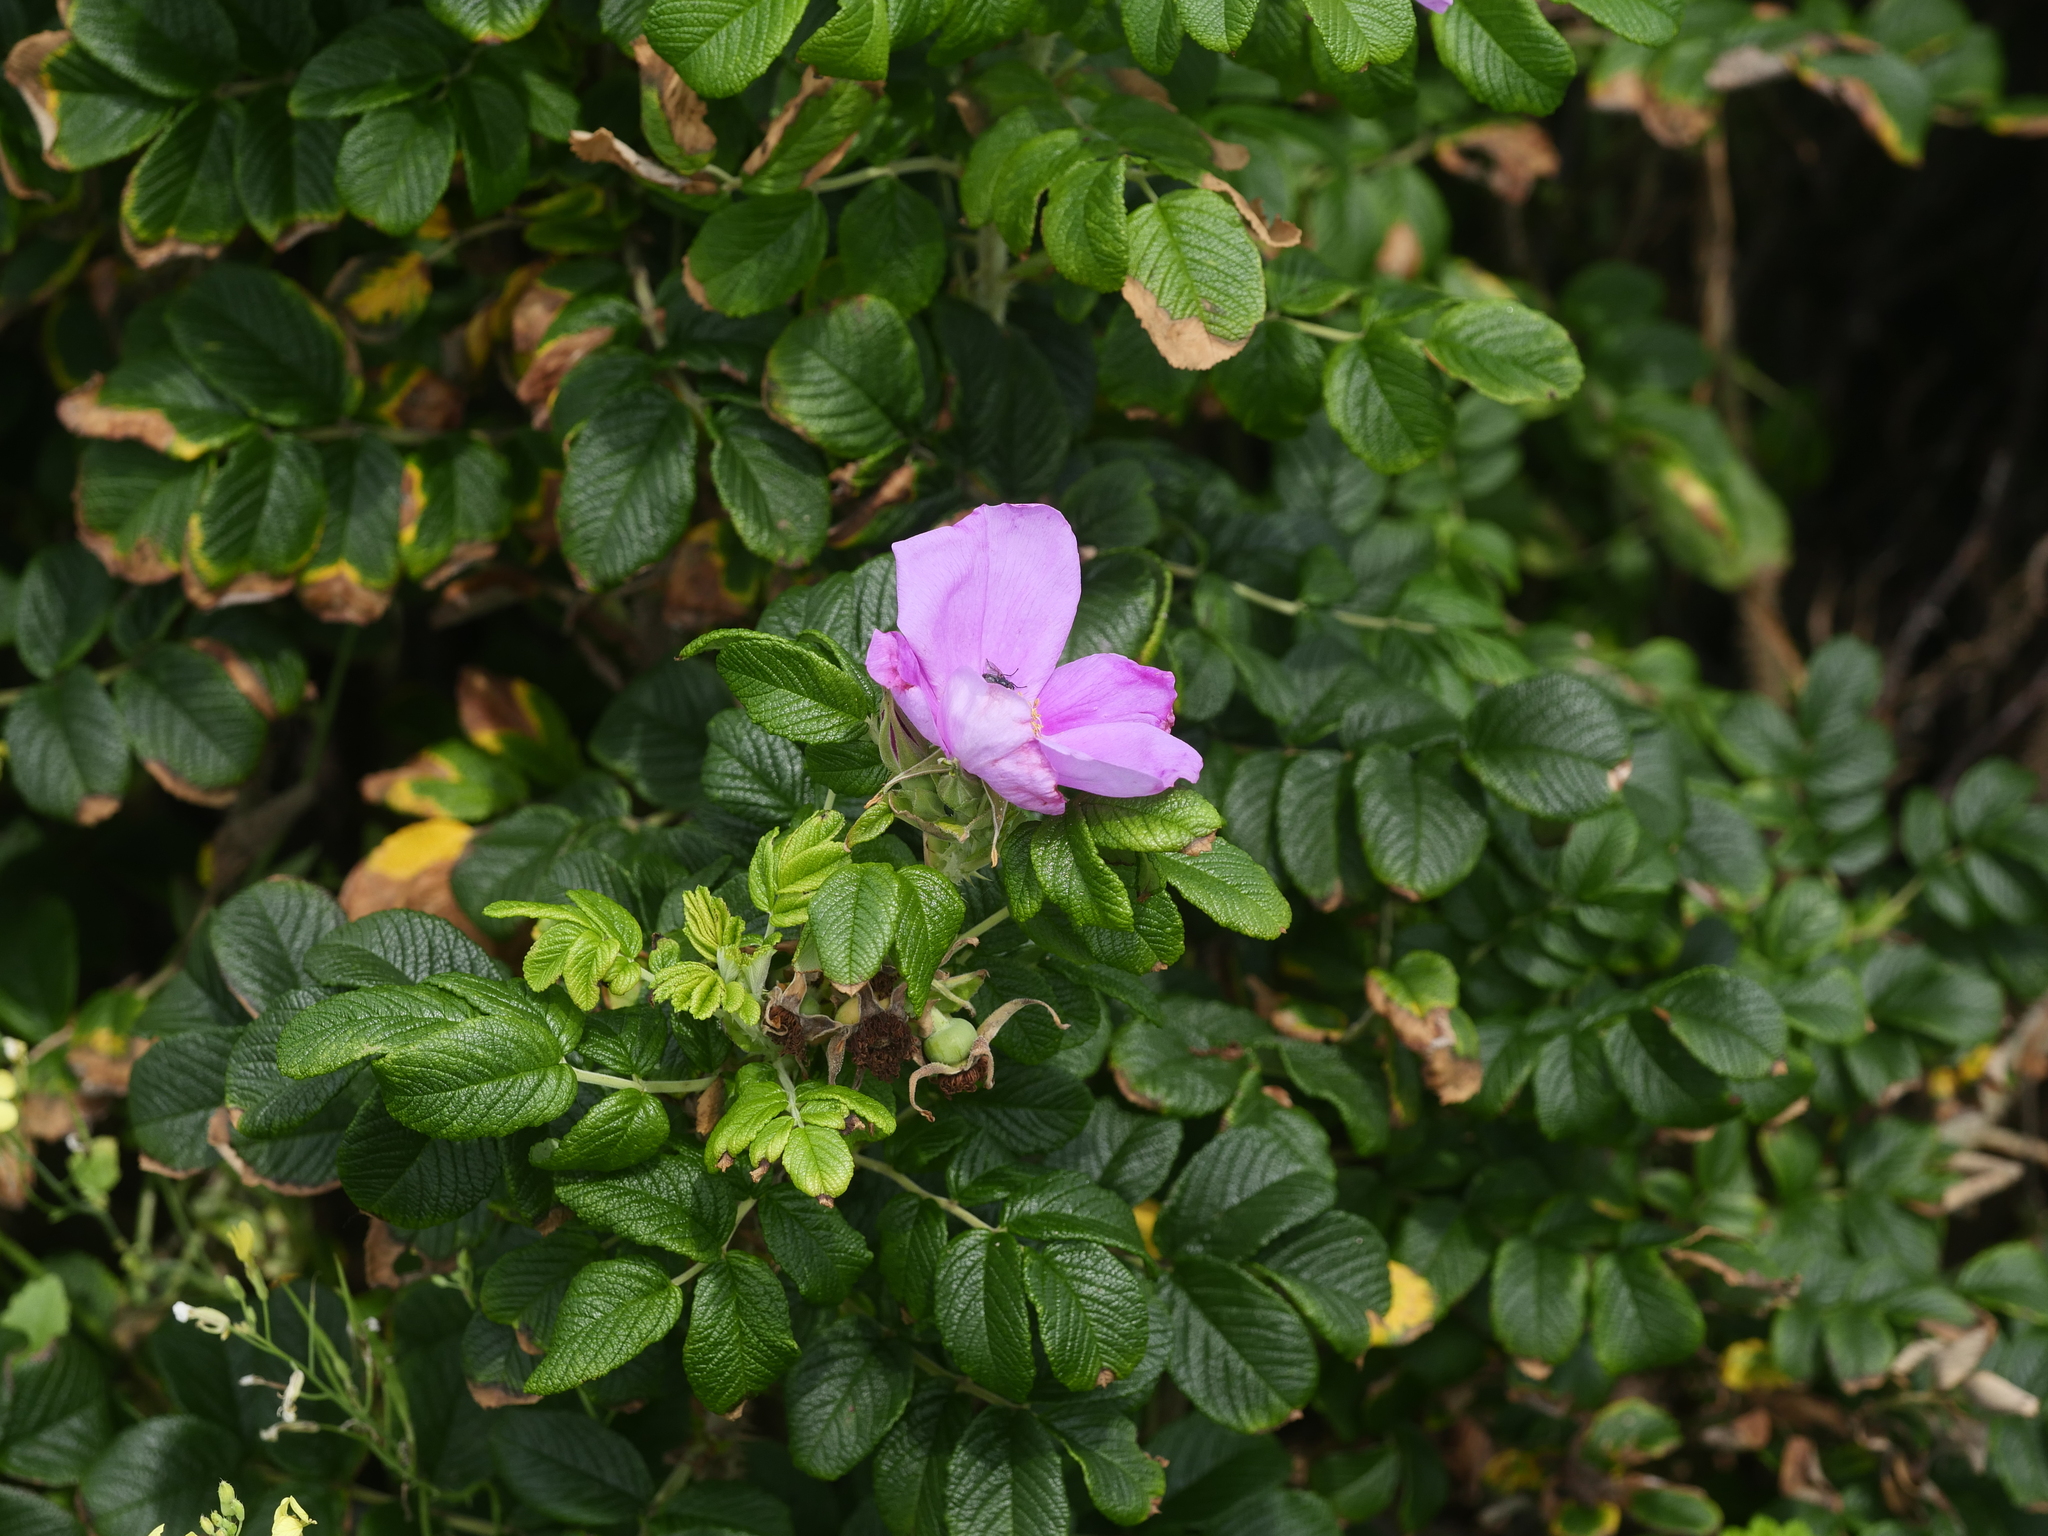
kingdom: Plantae
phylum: Tracheophyta
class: Magnoliopsida
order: Rosales
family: Rosaceae
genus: Rosa
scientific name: Rosa rugosa
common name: Japanese rose
